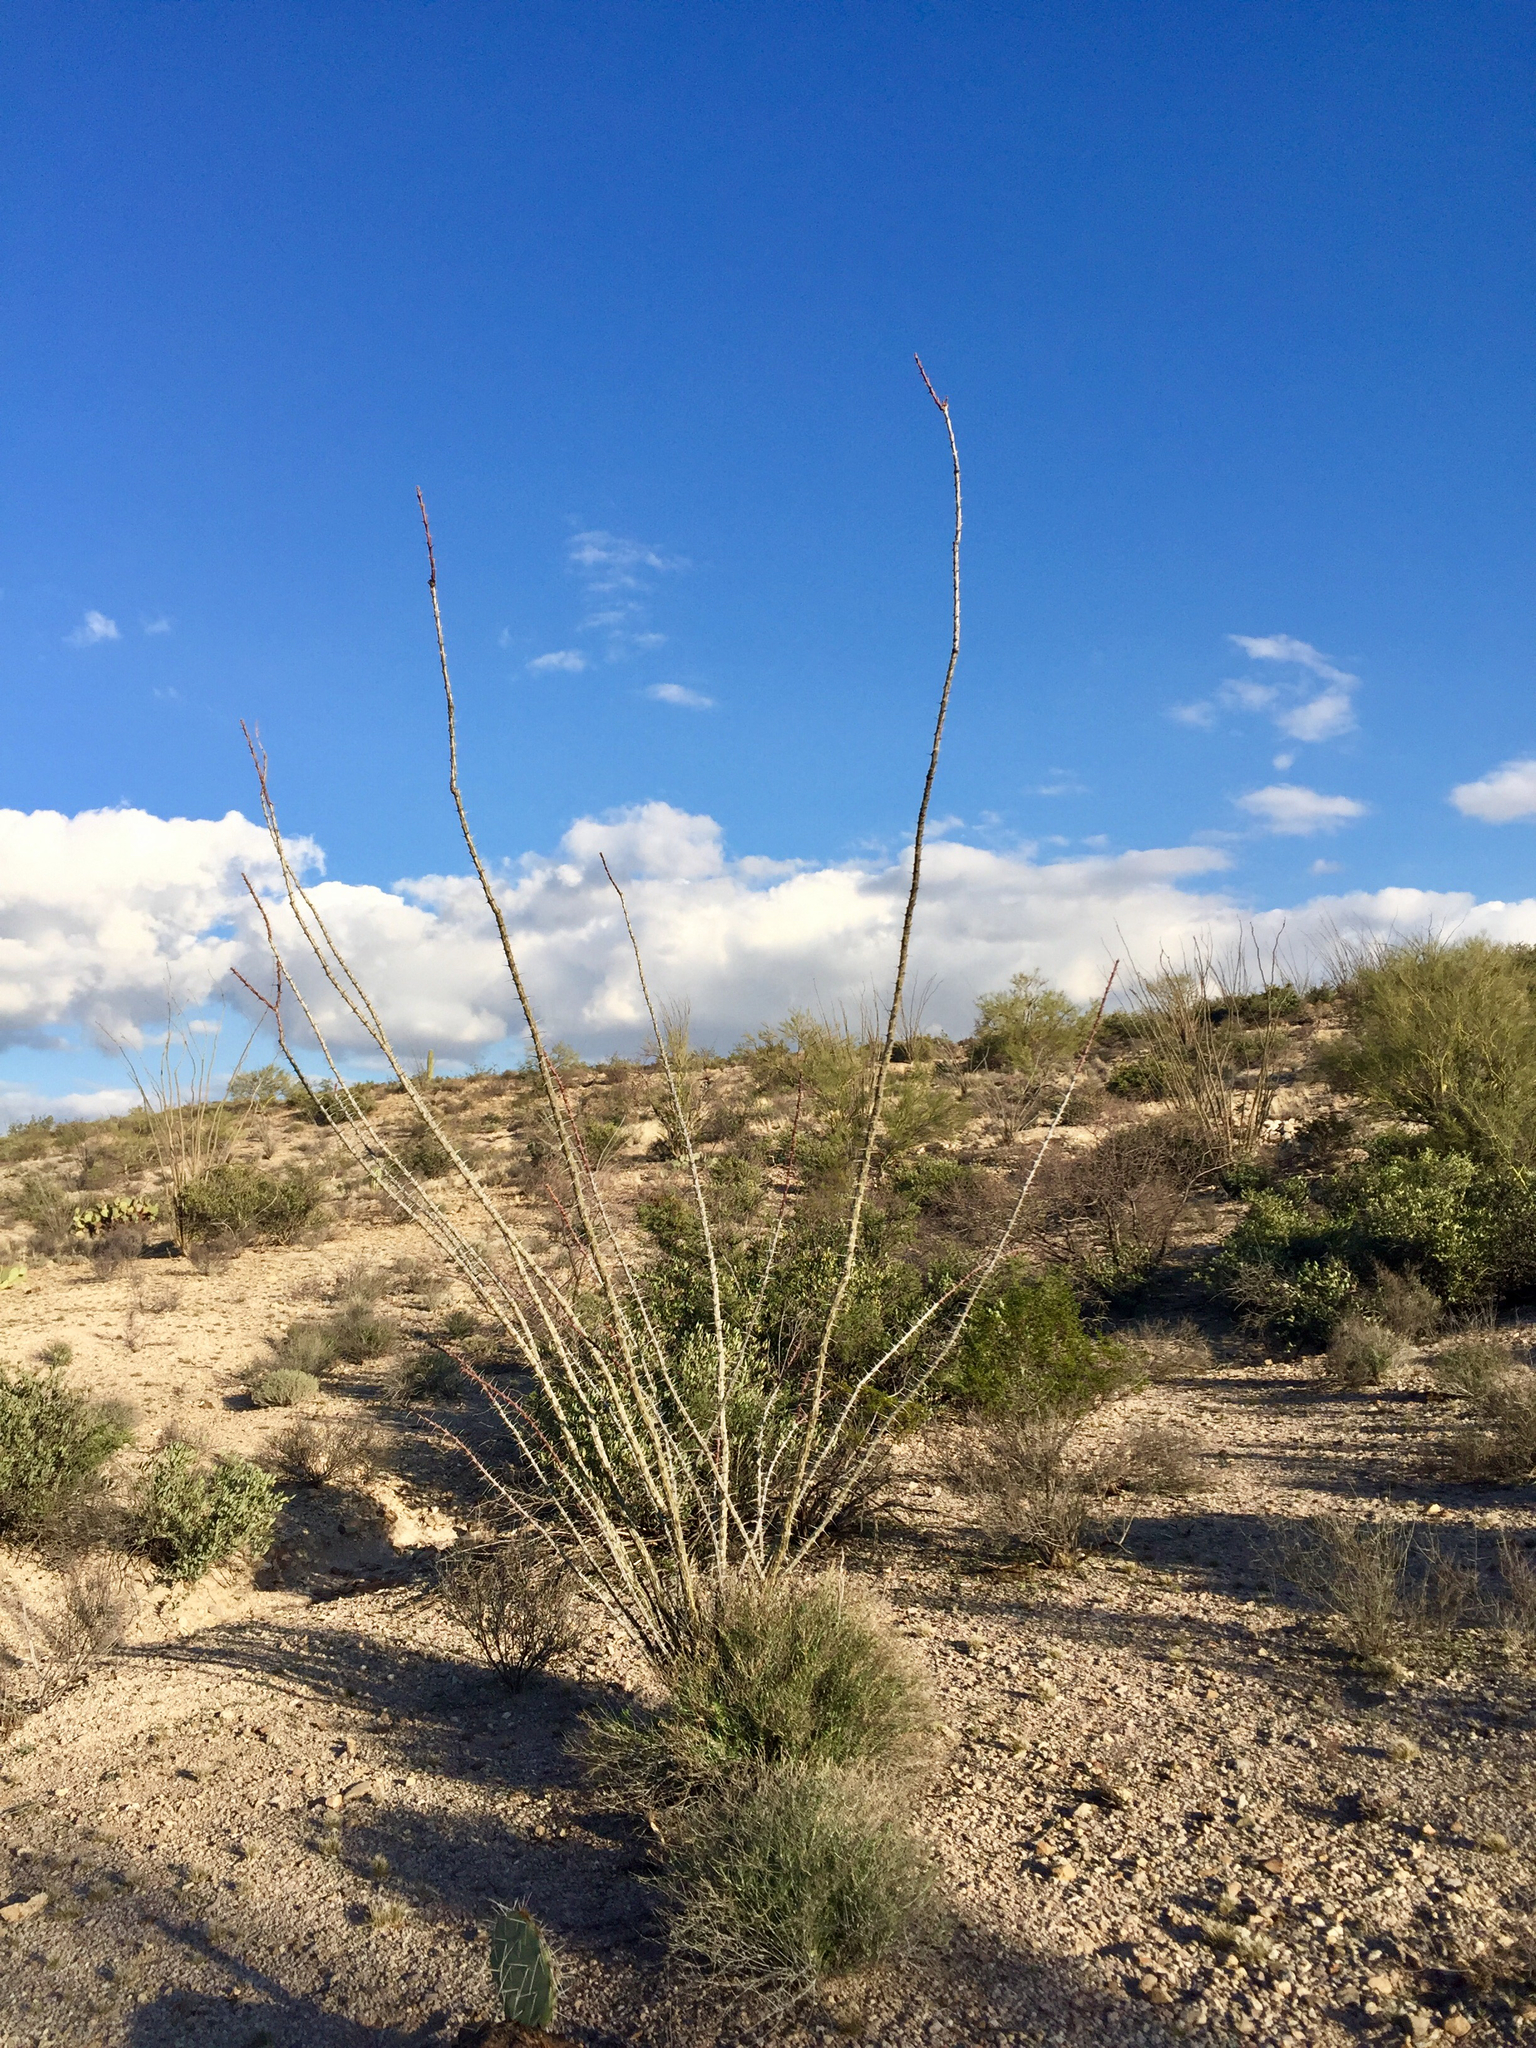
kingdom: Plantae
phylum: Tracheophyta
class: Magnoliopsida
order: Ericales
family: Fouquieriaceae
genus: Fouquieria
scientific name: Fouquieria splendens
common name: Vine-cactus
